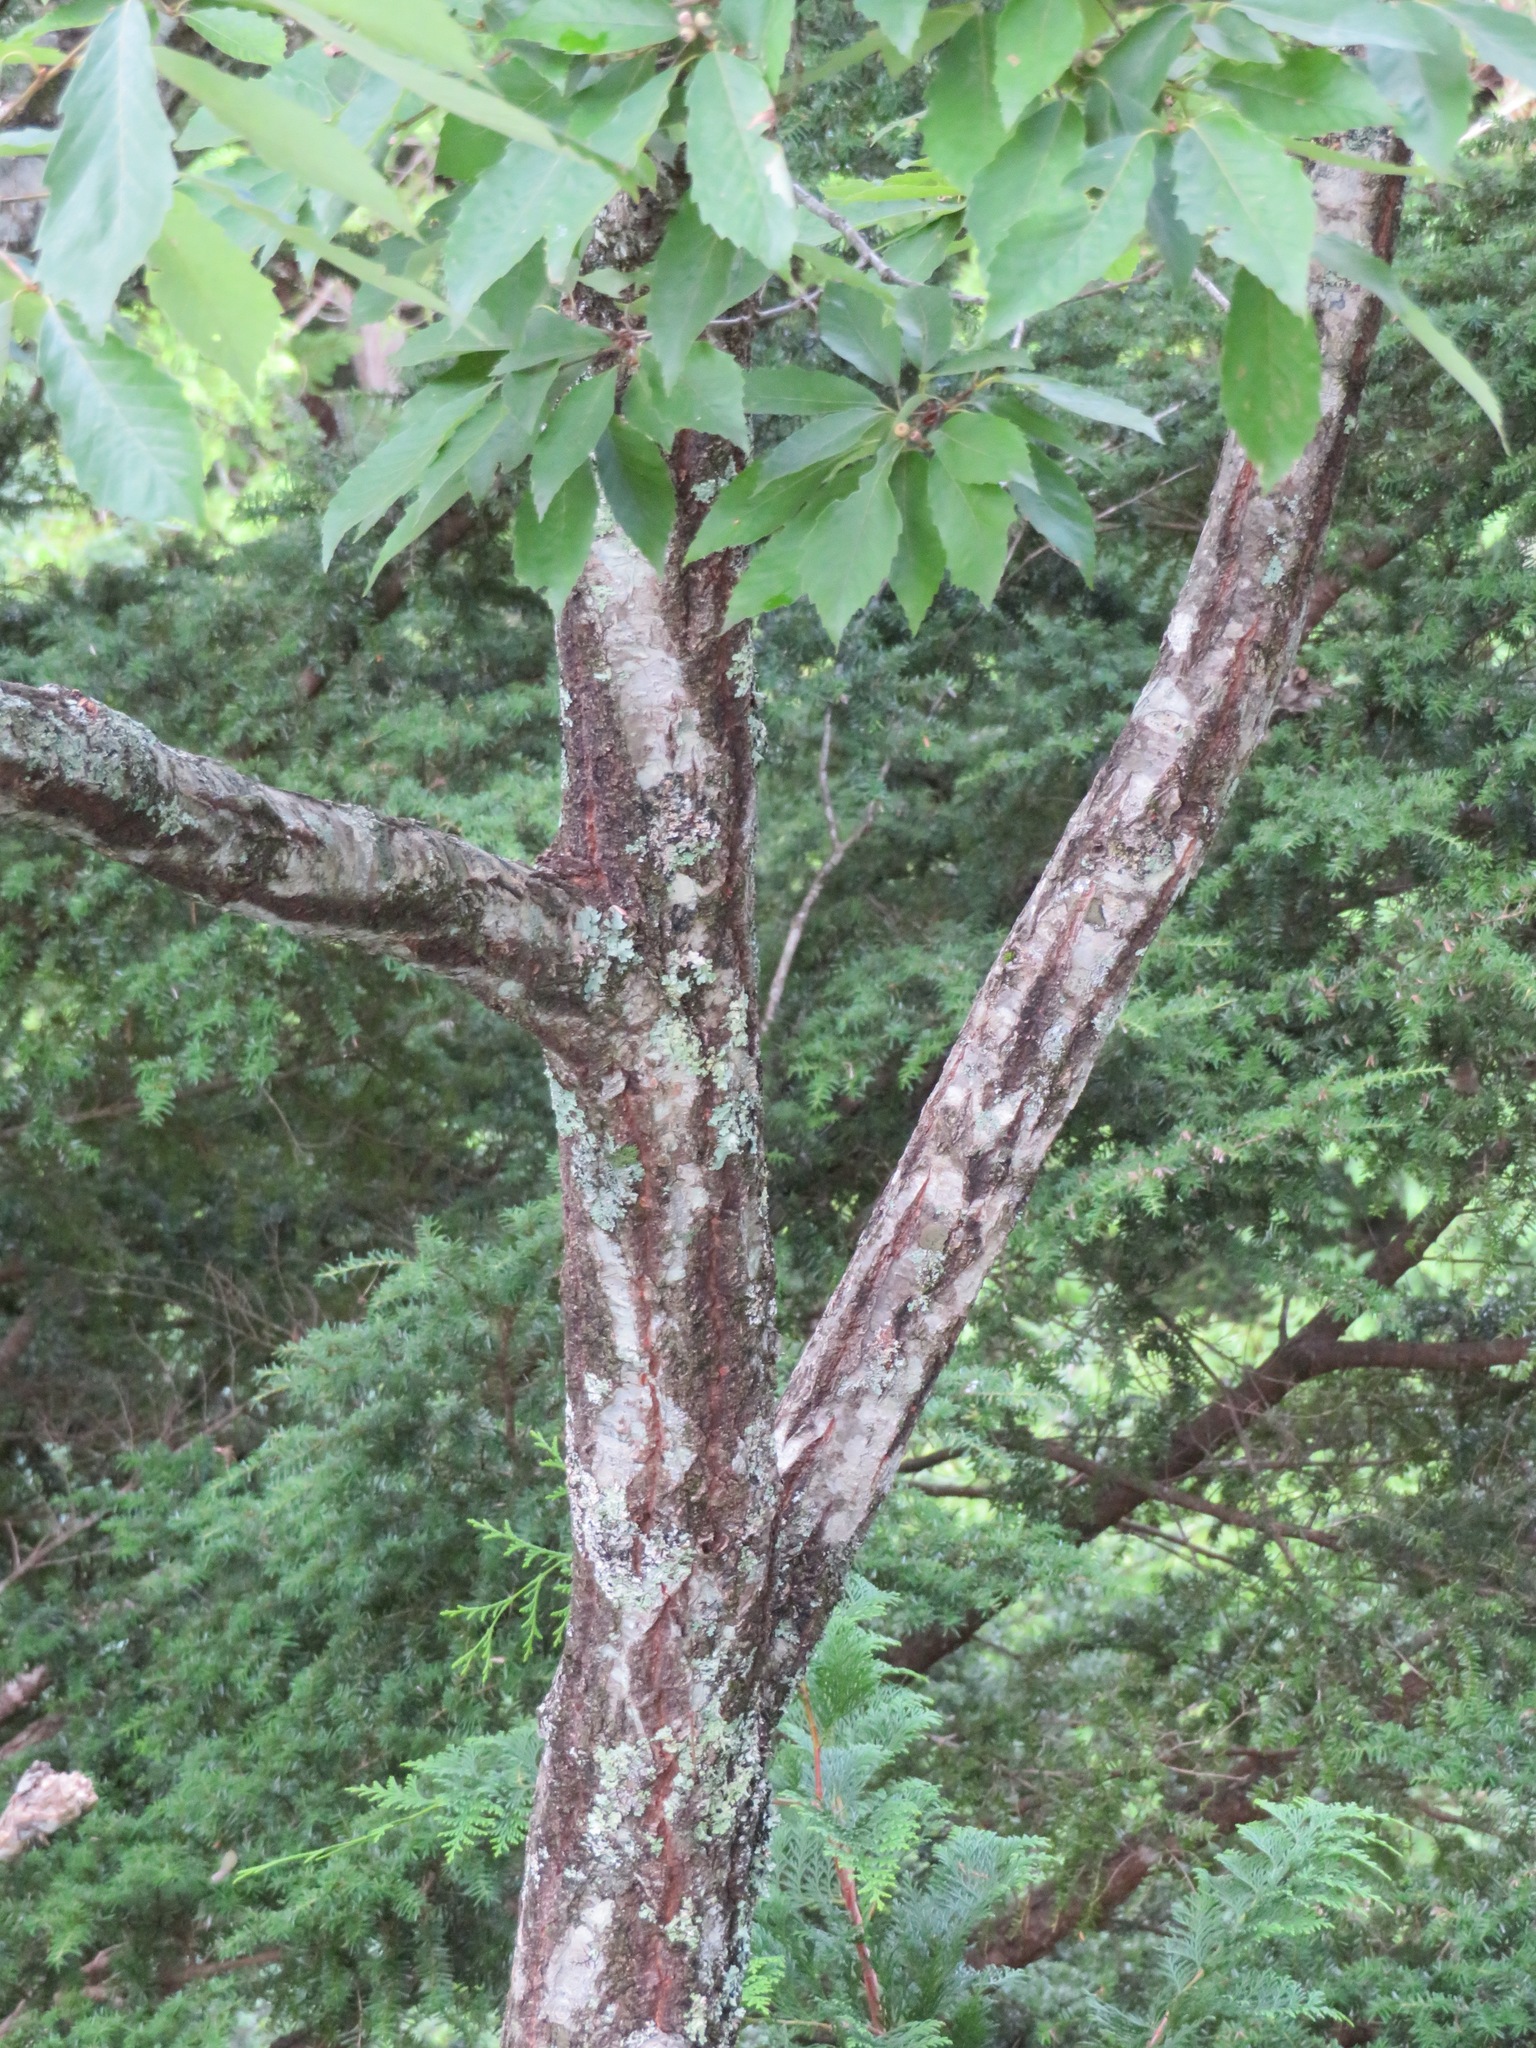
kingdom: Plantae
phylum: Tracheophyta
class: Magnoliopsida
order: Fagales
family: Fagaceae
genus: Quercus
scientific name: Quercus serrata
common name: Bao li
